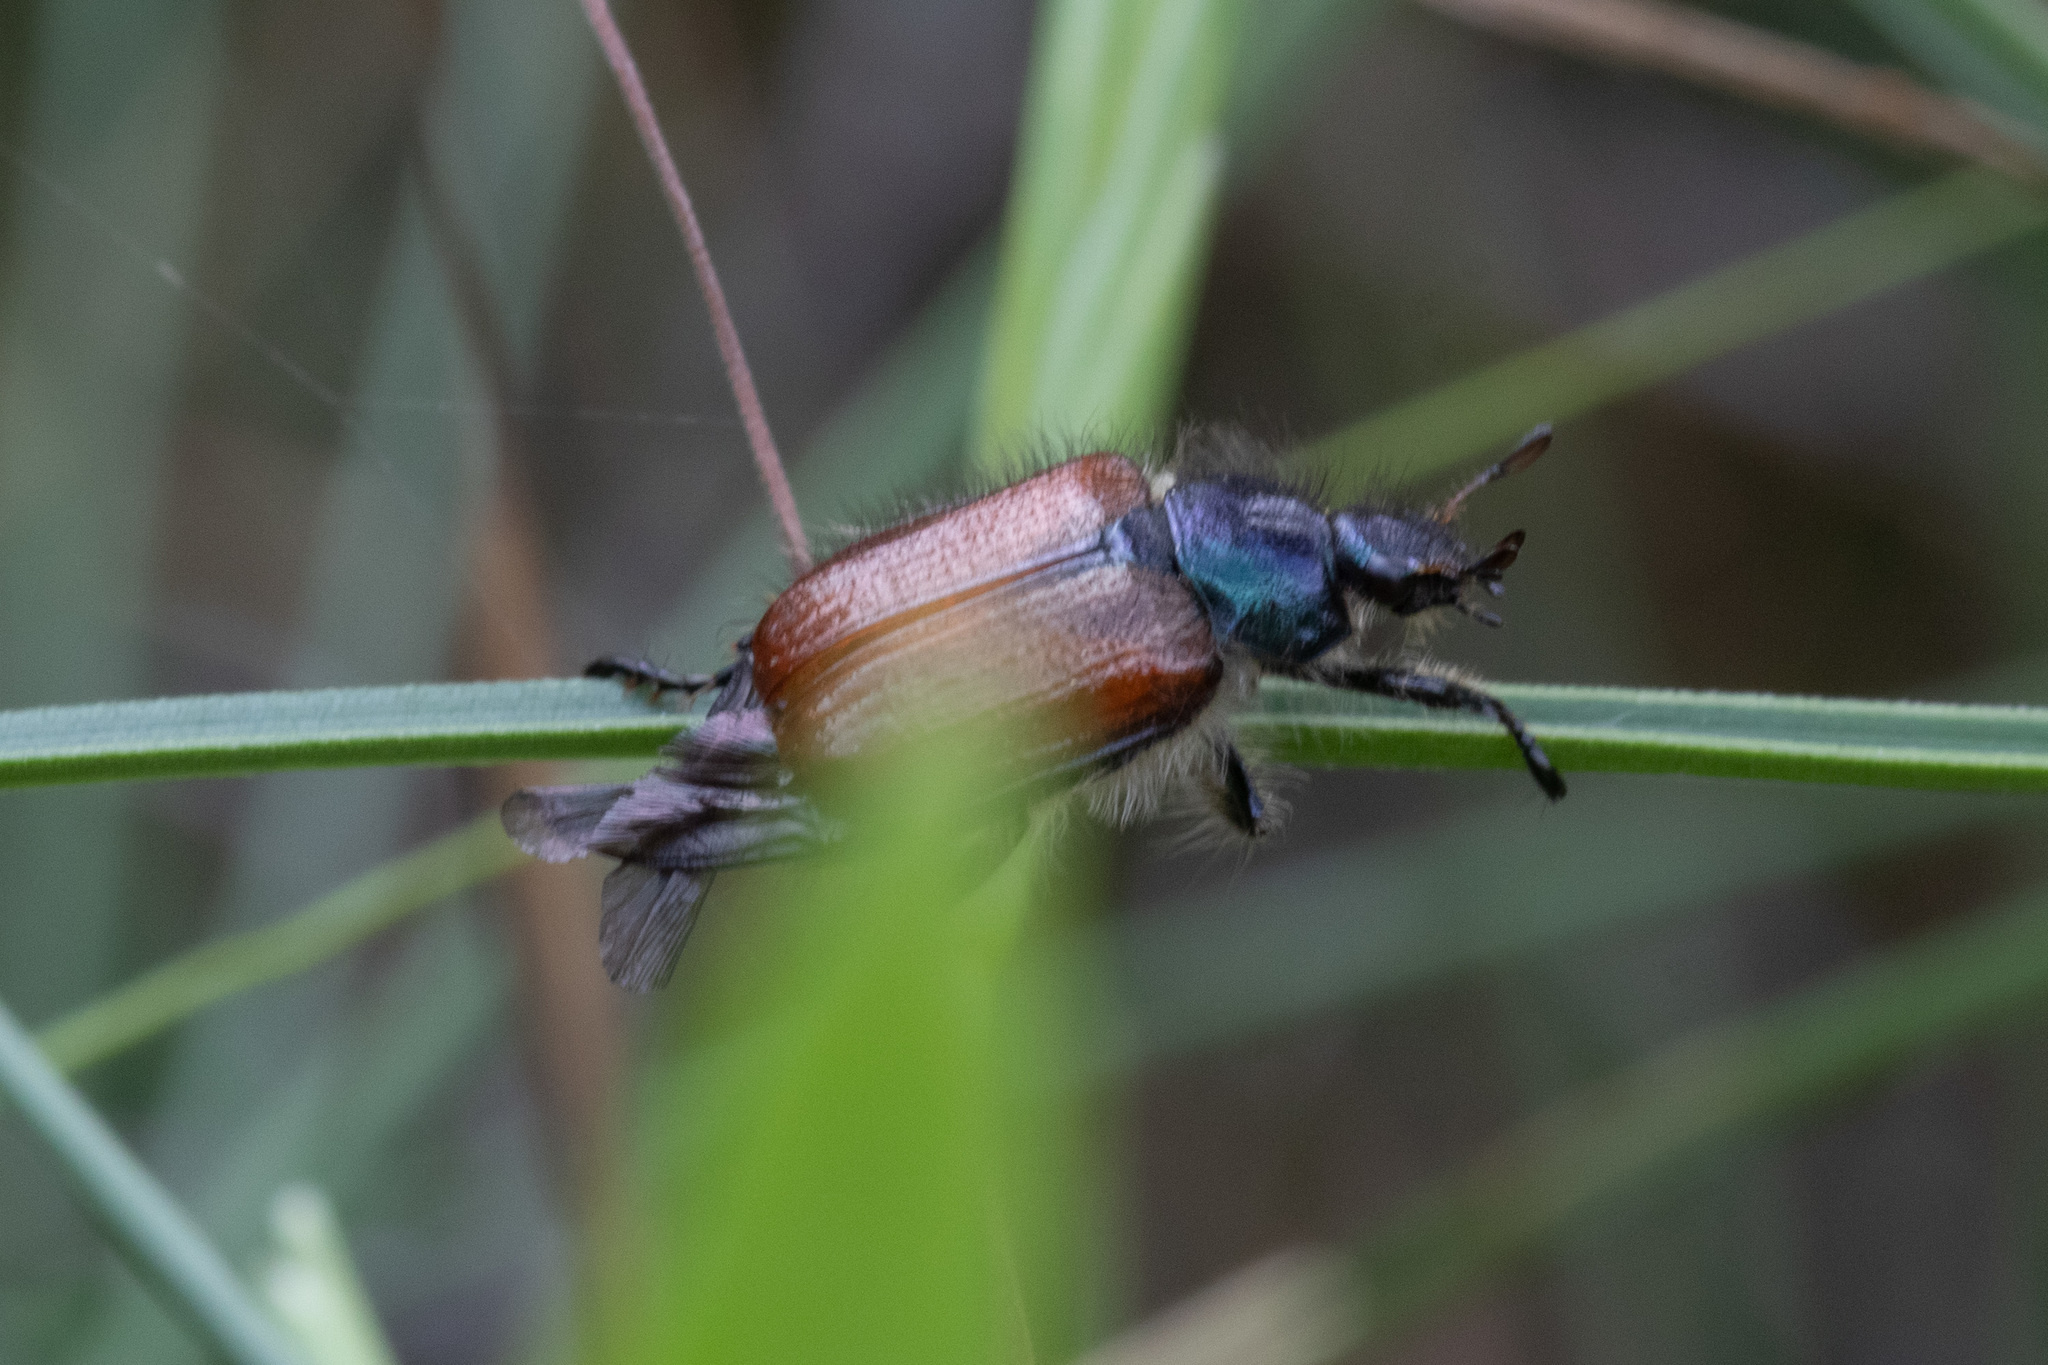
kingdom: Animalia
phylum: Arthropoda
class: Insecta
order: Coleoptera
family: Scarabaeidae
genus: Phyllopertha
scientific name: Phyllopertha horticola
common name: Garden chafer
